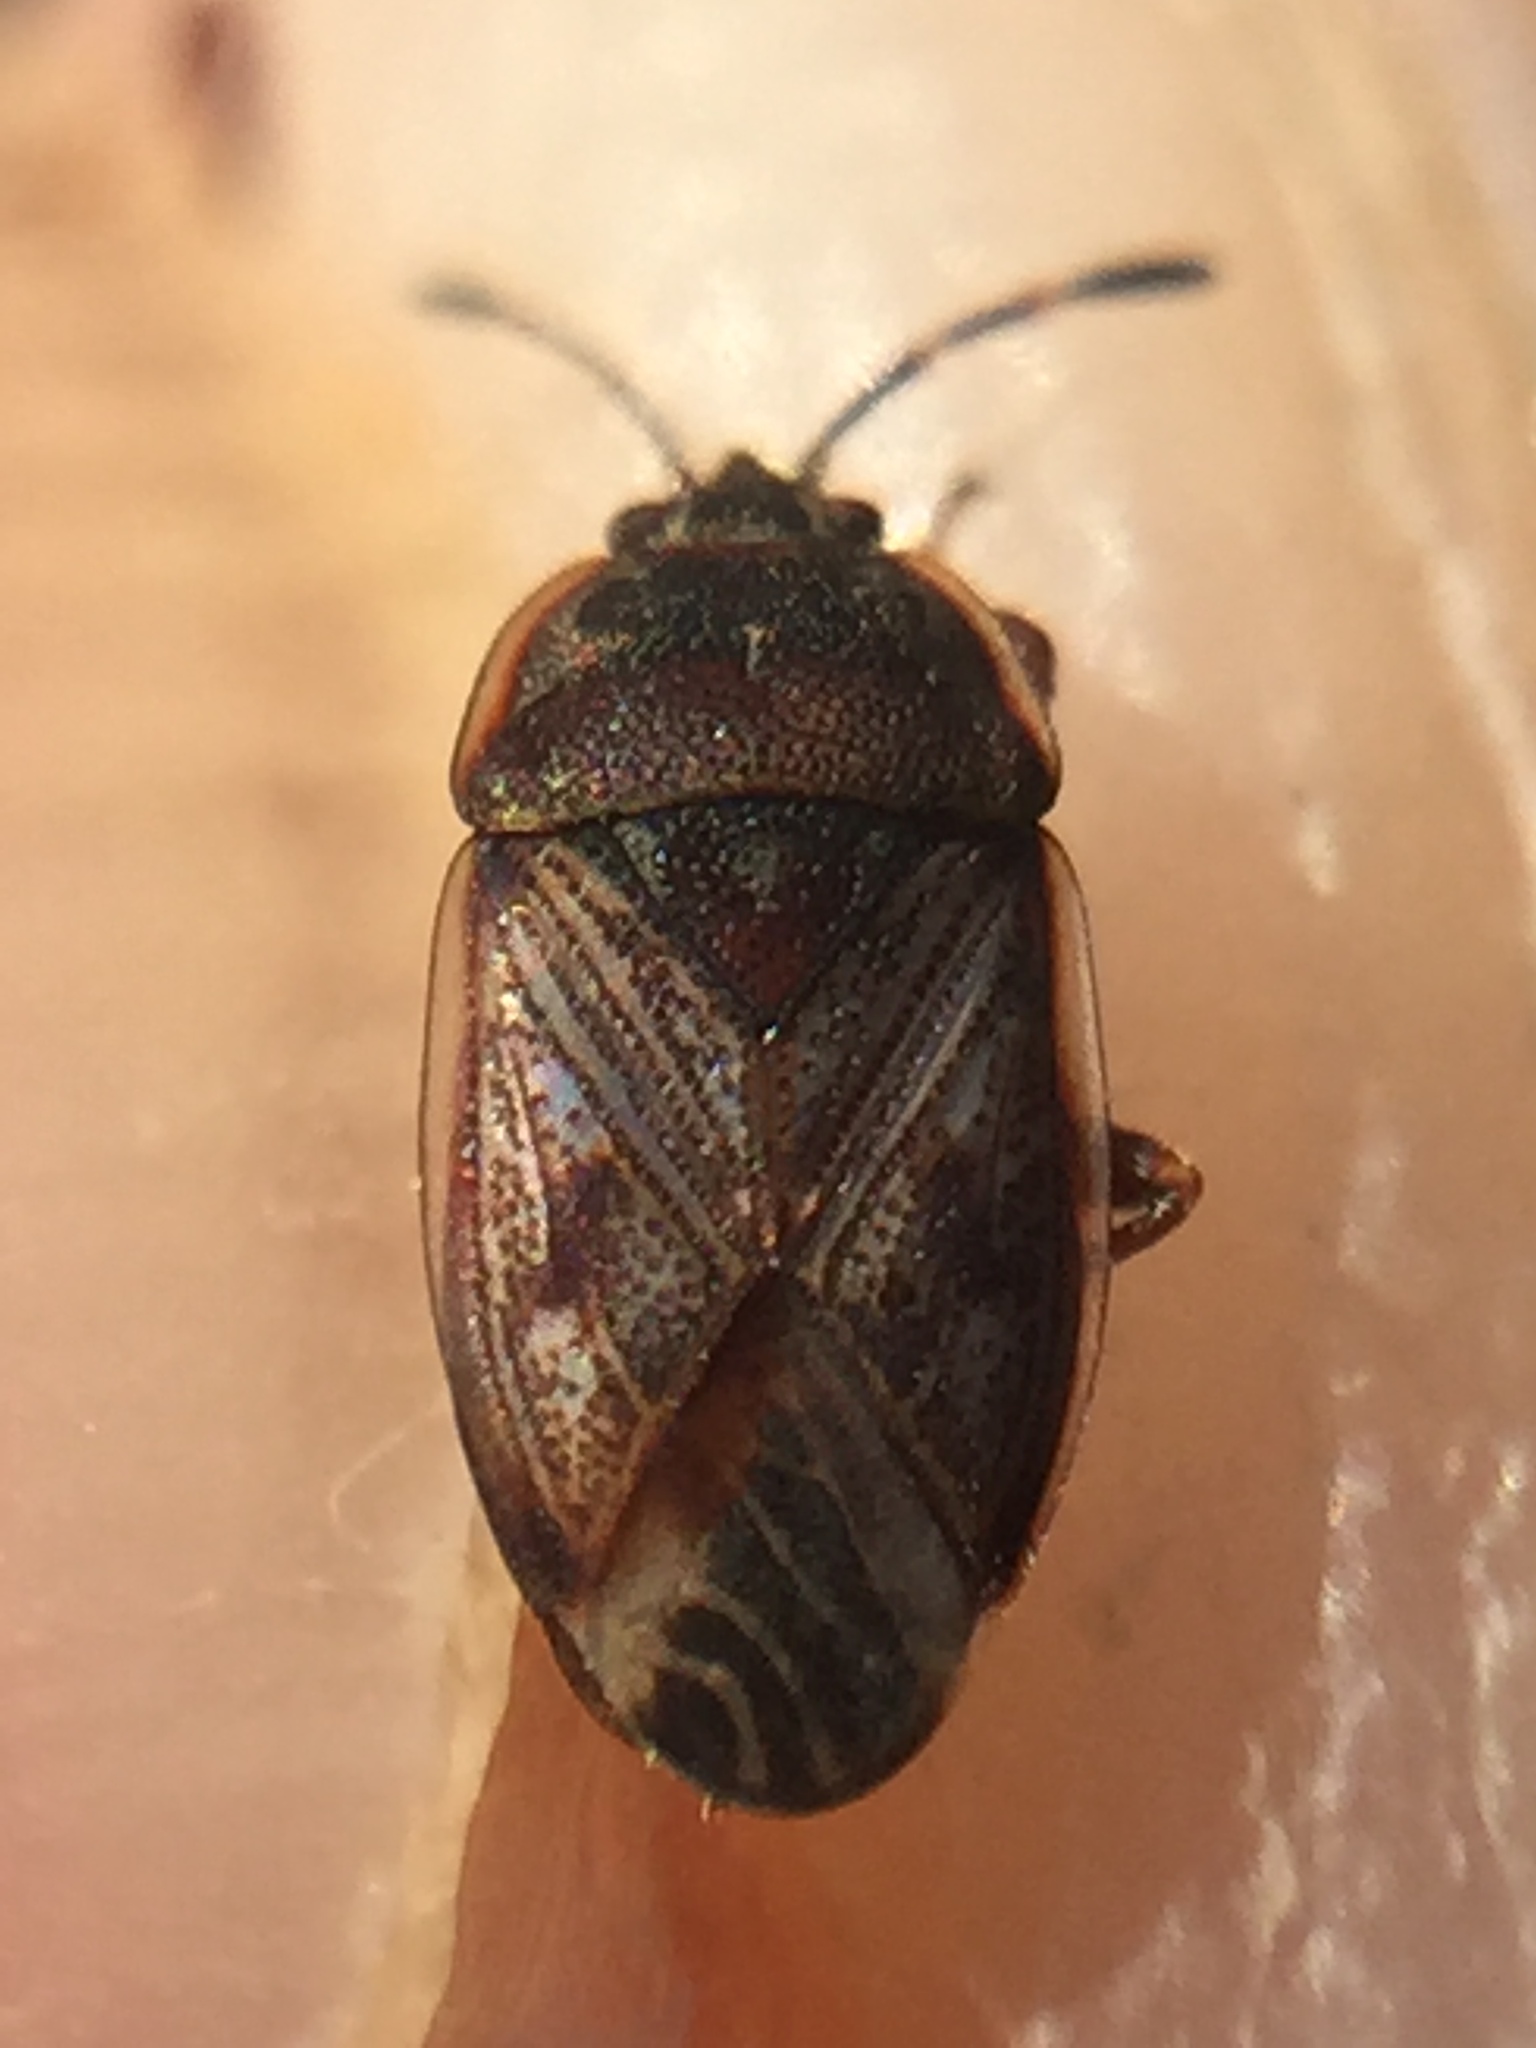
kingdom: Animalia
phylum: Arthropoda
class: Insecta
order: Hemiptera
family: Artheneidae
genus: Dilompus
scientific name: Dilompus robustus
